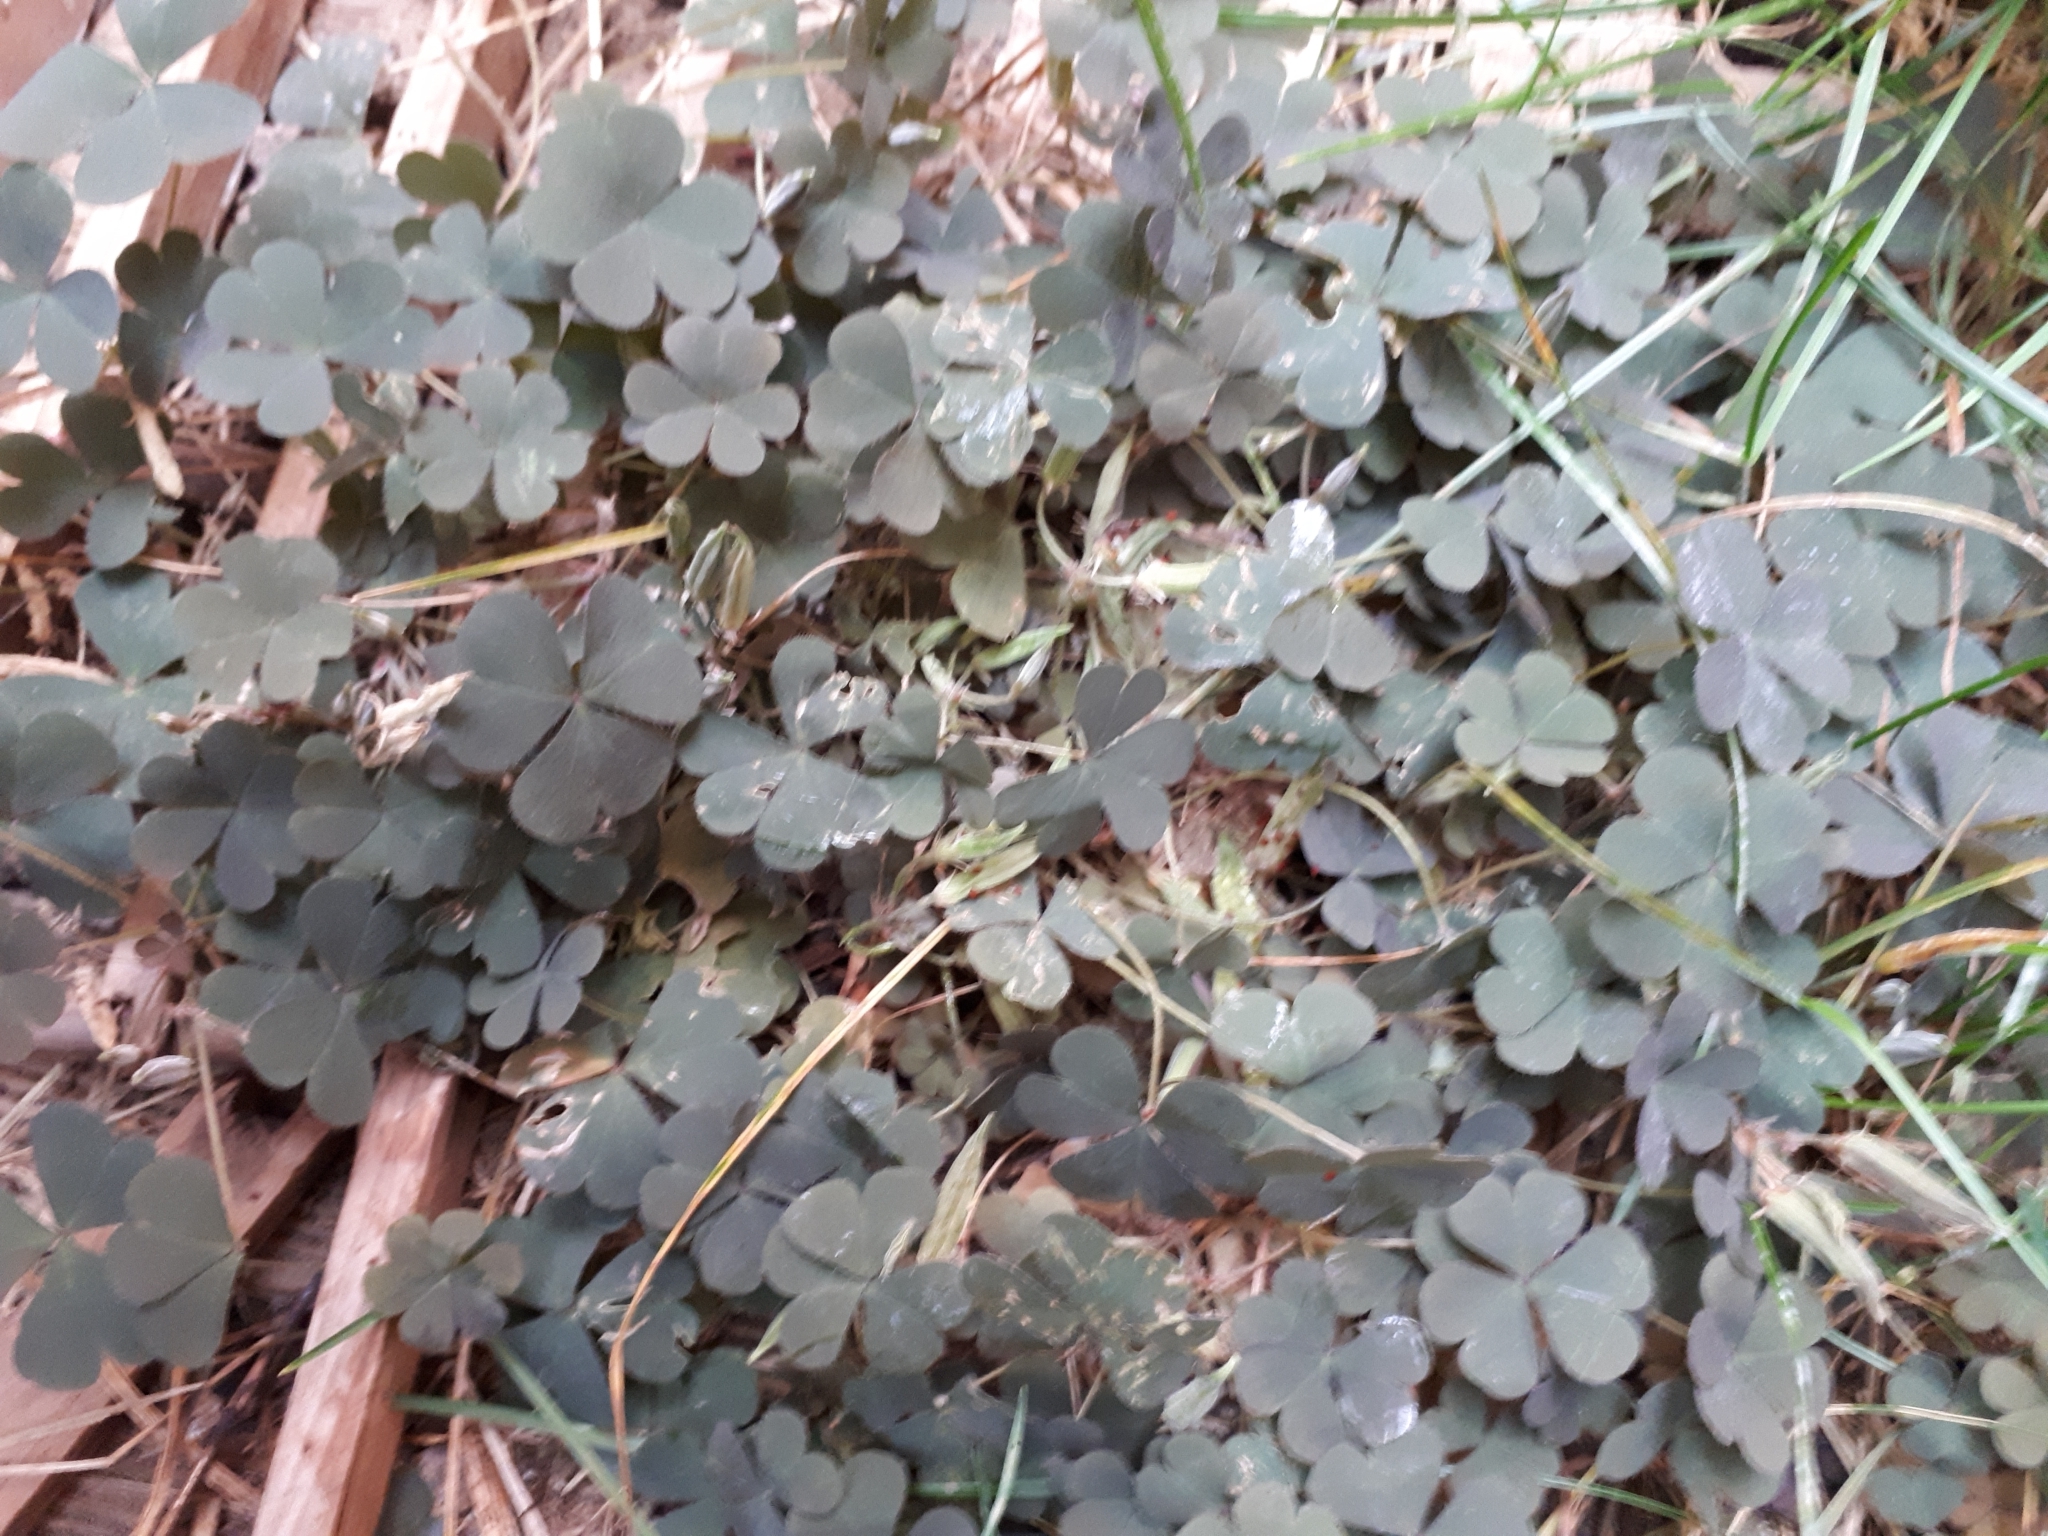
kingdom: Plantae
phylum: Tracheophyta
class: Magnoliopsida
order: Oxalidales
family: Oxalidaceae
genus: Oxalis
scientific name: Oxalis corniculata
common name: Procumbent yellow-sorrel
